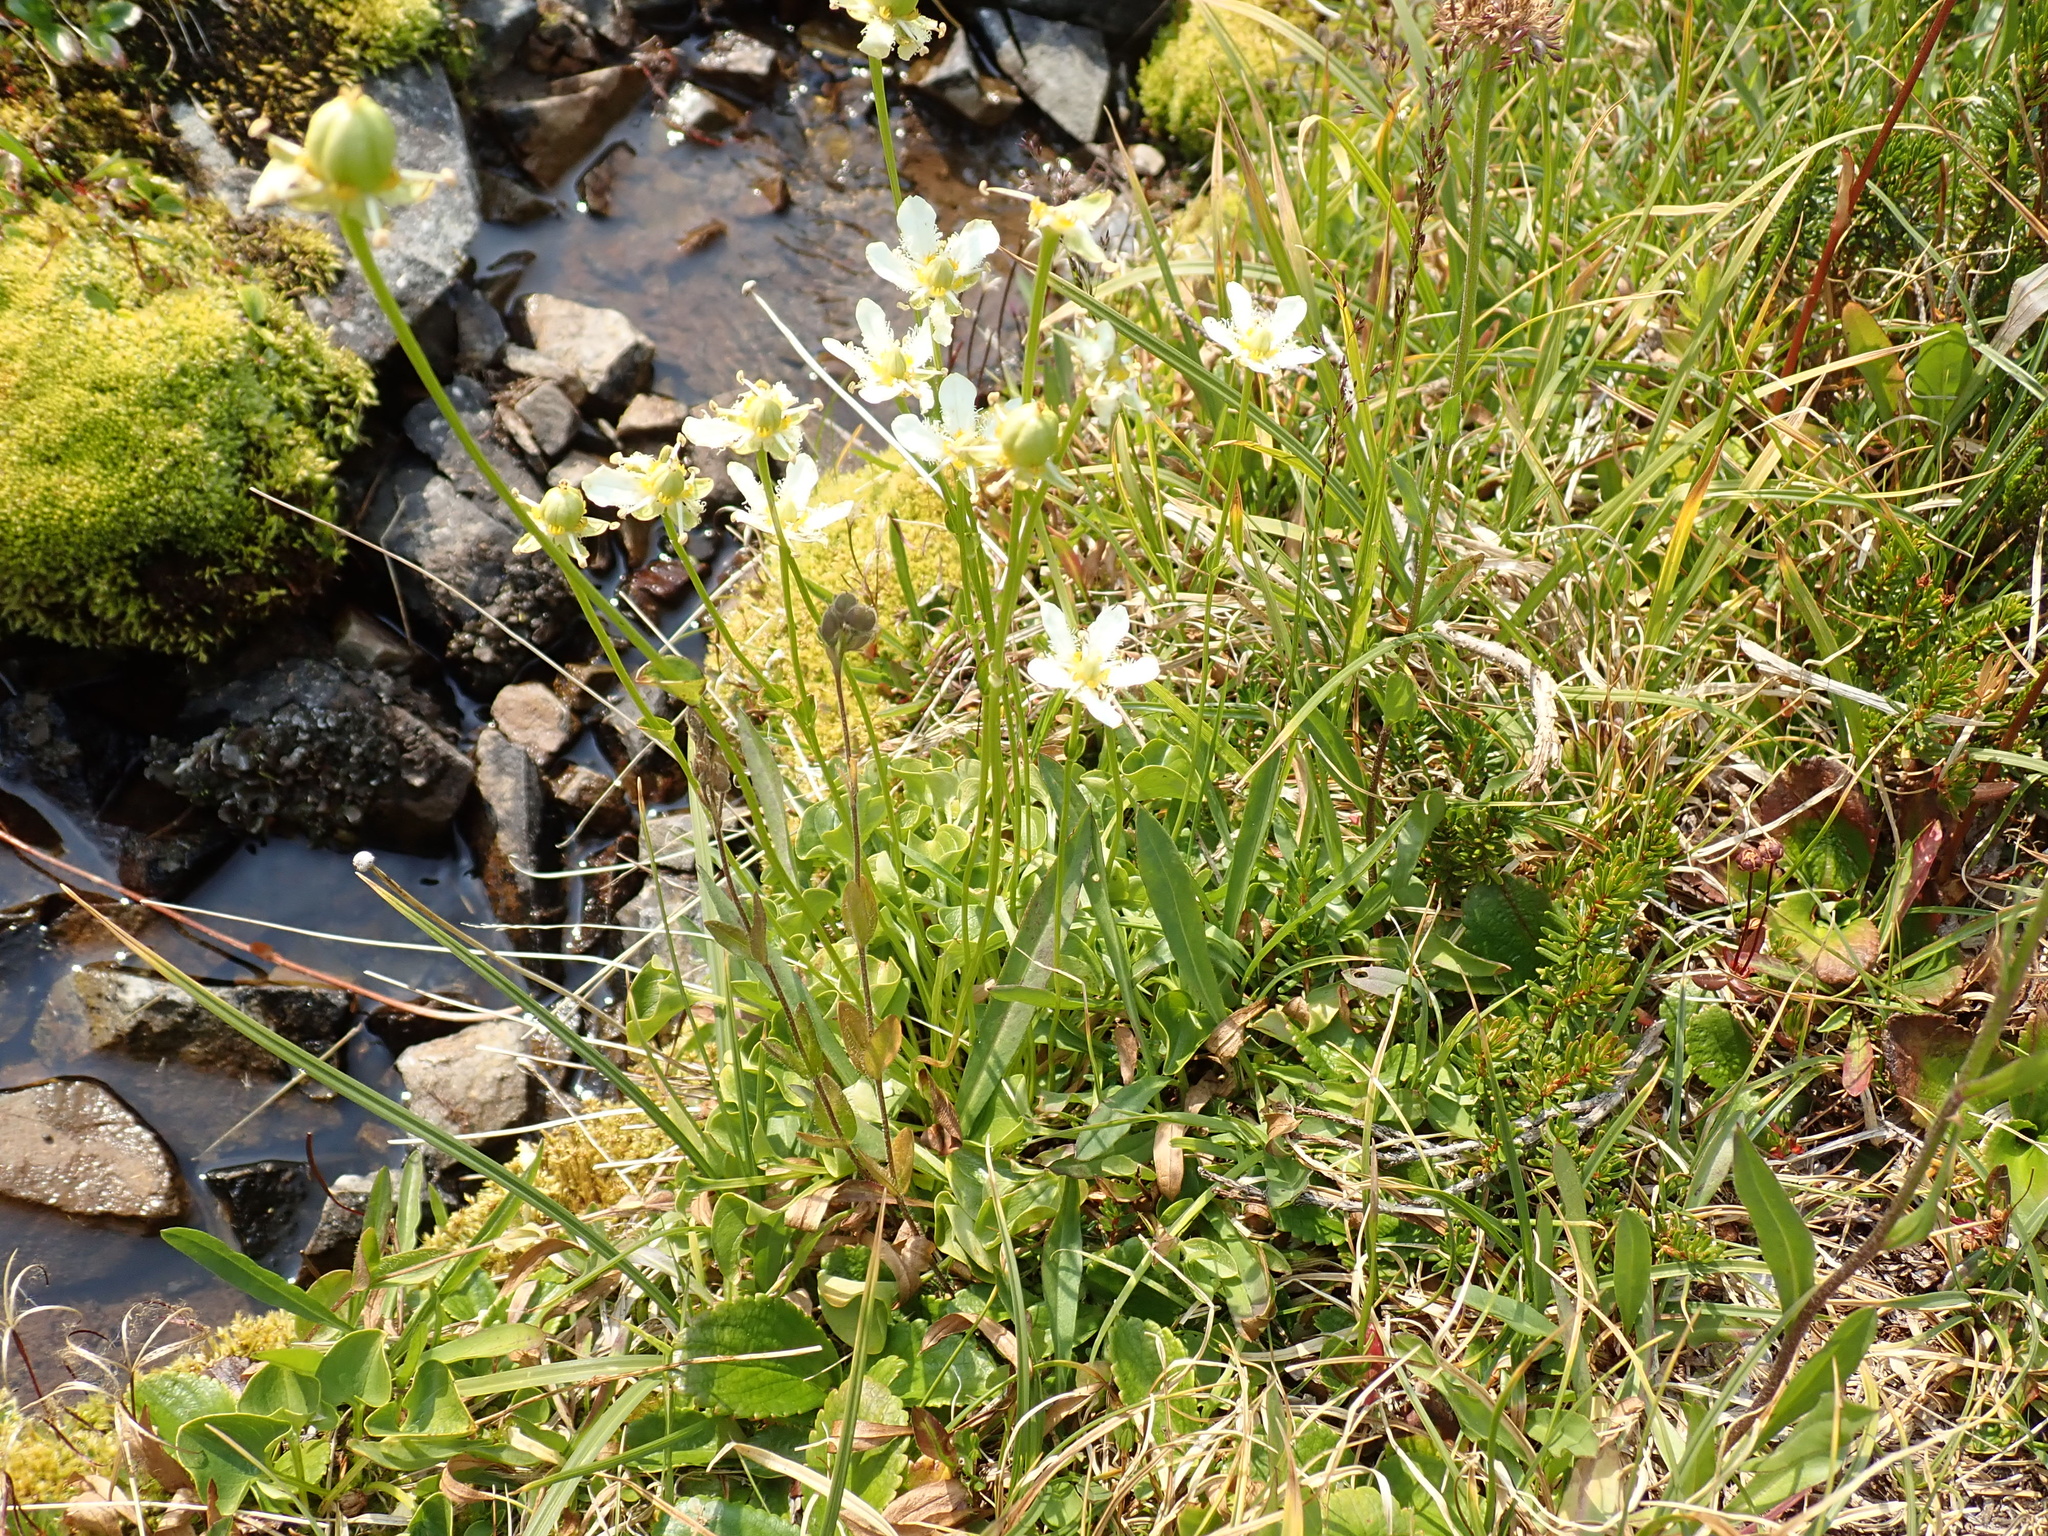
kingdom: Plantae
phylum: Tracheophyta
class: Magnoliopsida
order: Celastrales
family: Parnassiaceae
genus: Parnassia
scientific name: Parnassia fimbriata
